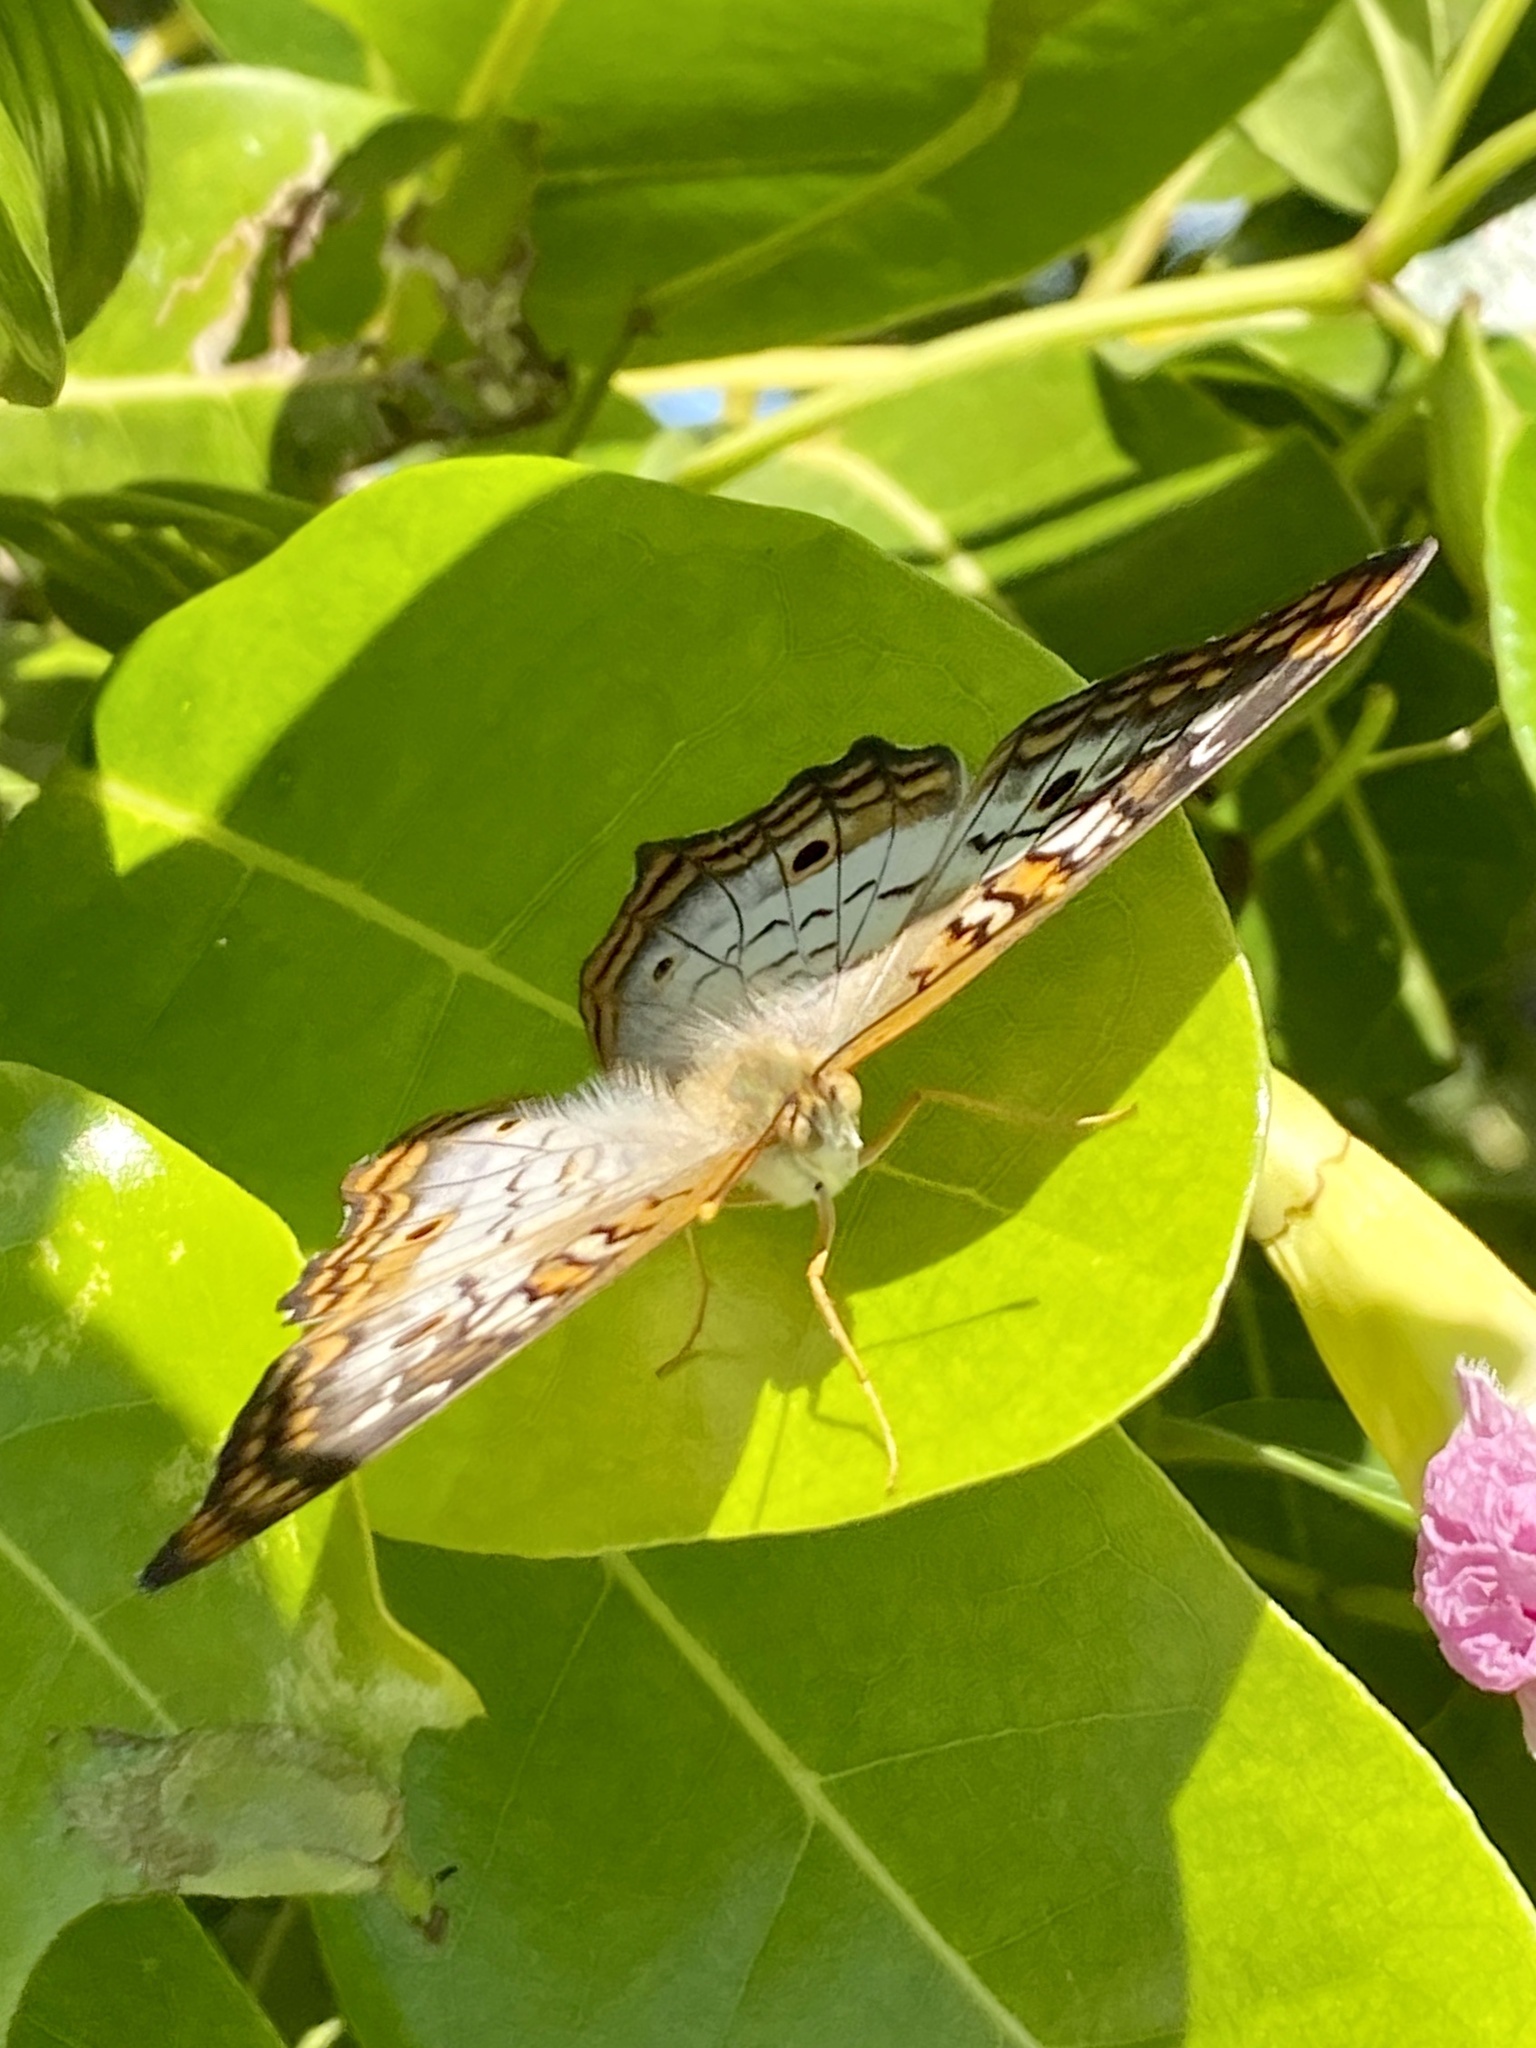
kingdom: Animalia
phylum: Arthropoda
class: Insecta
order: Lepidoptera
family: Nymphalidae
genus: Anartia
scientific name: Anartia jatrophae
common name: White peacock
